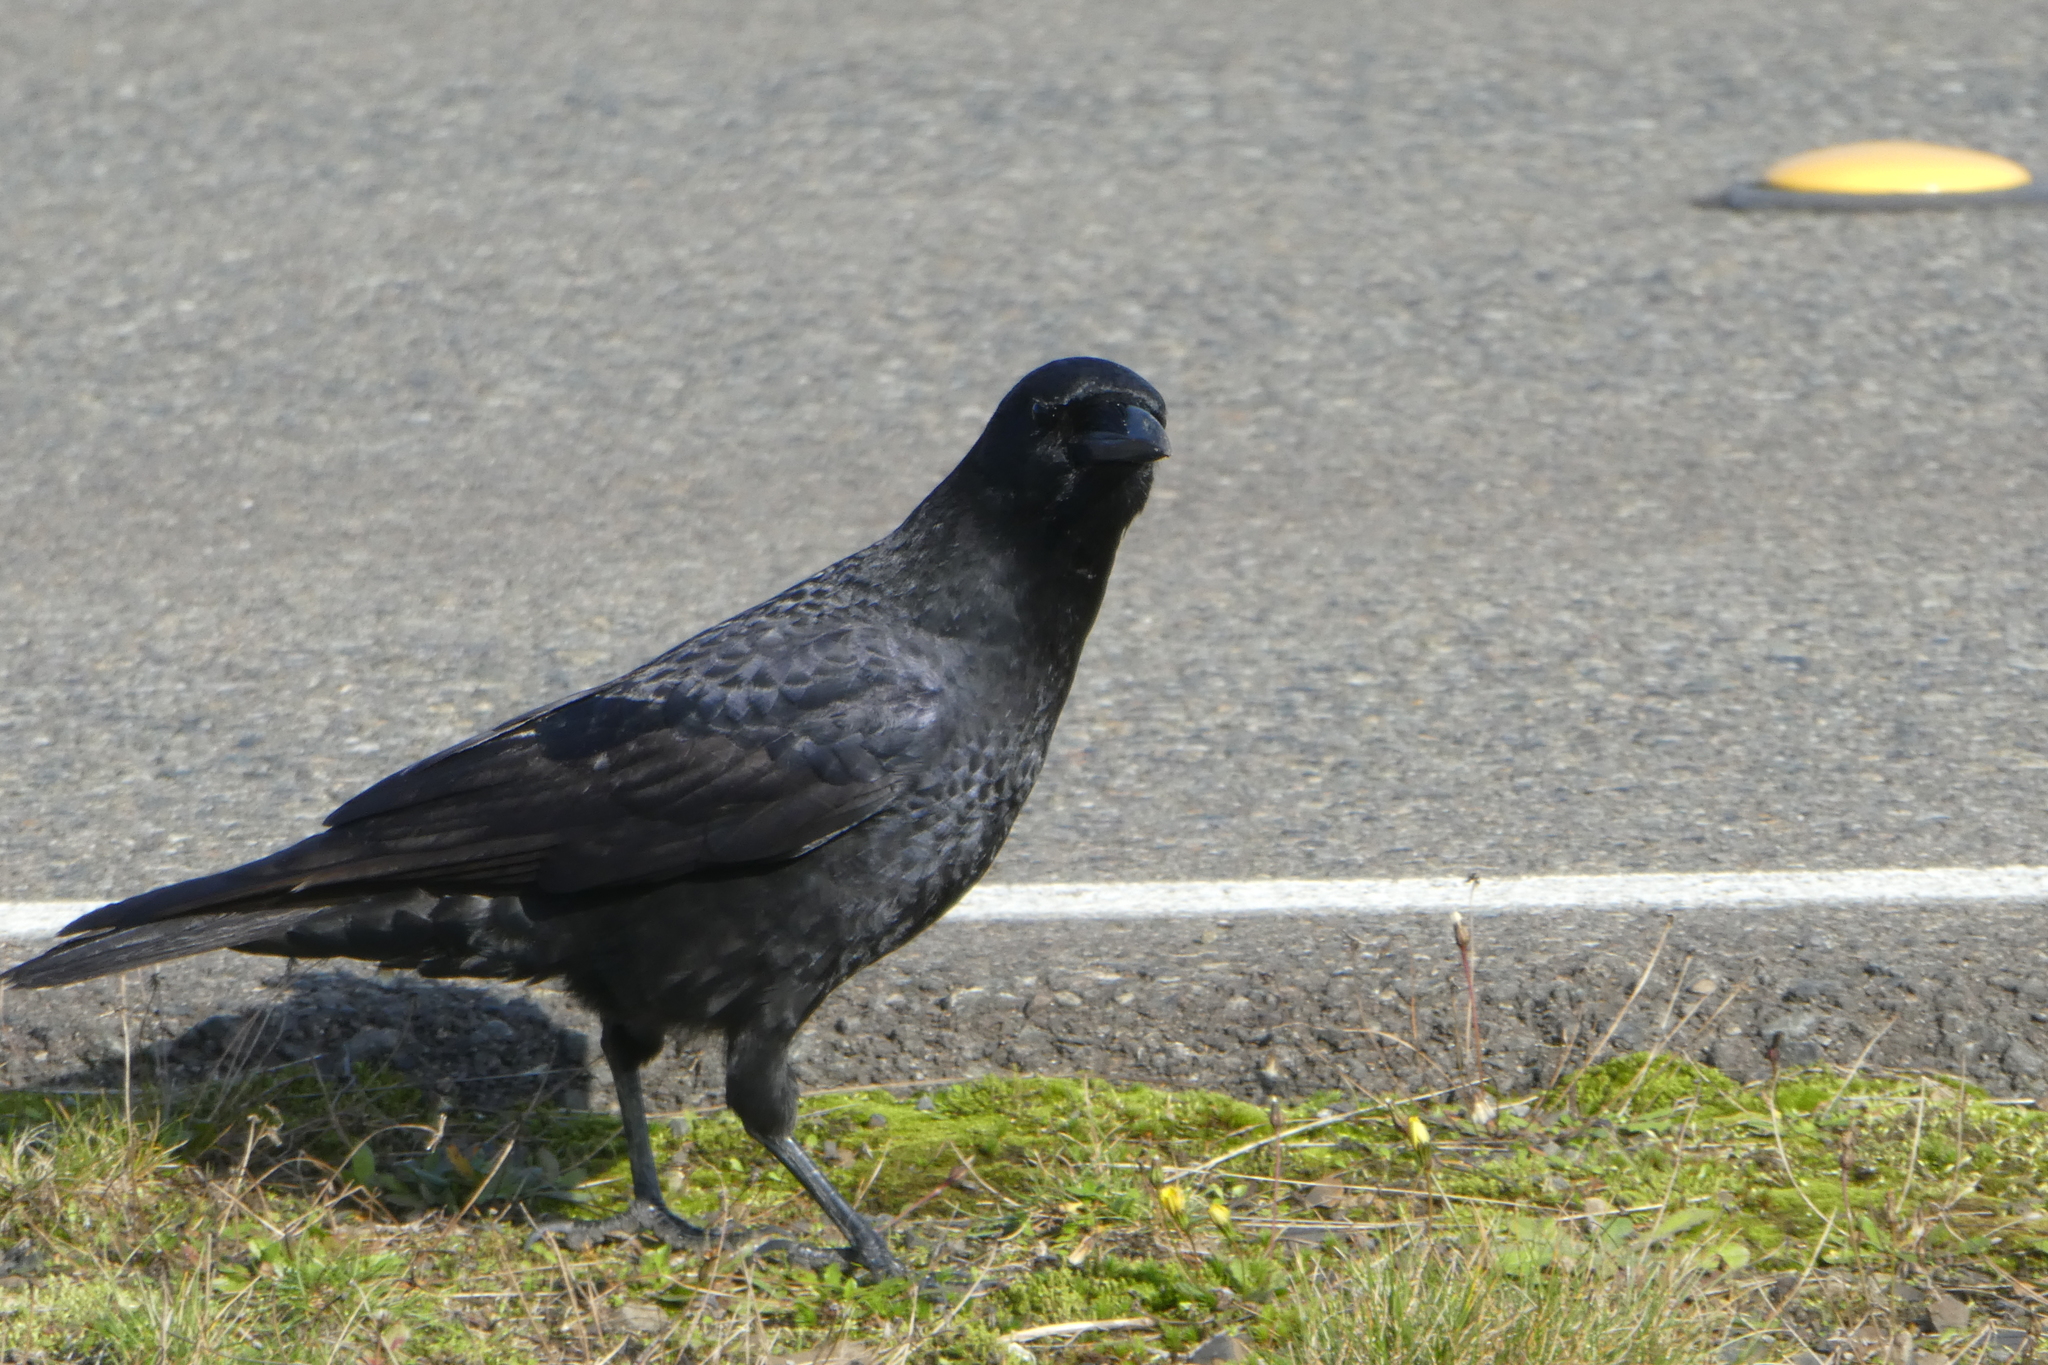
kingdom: Animalia
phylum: Chordata
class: Aves
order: Passeriformes
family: Corvidae
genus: Corvus
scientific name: Corvus brachyrhynchos
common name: American crow
